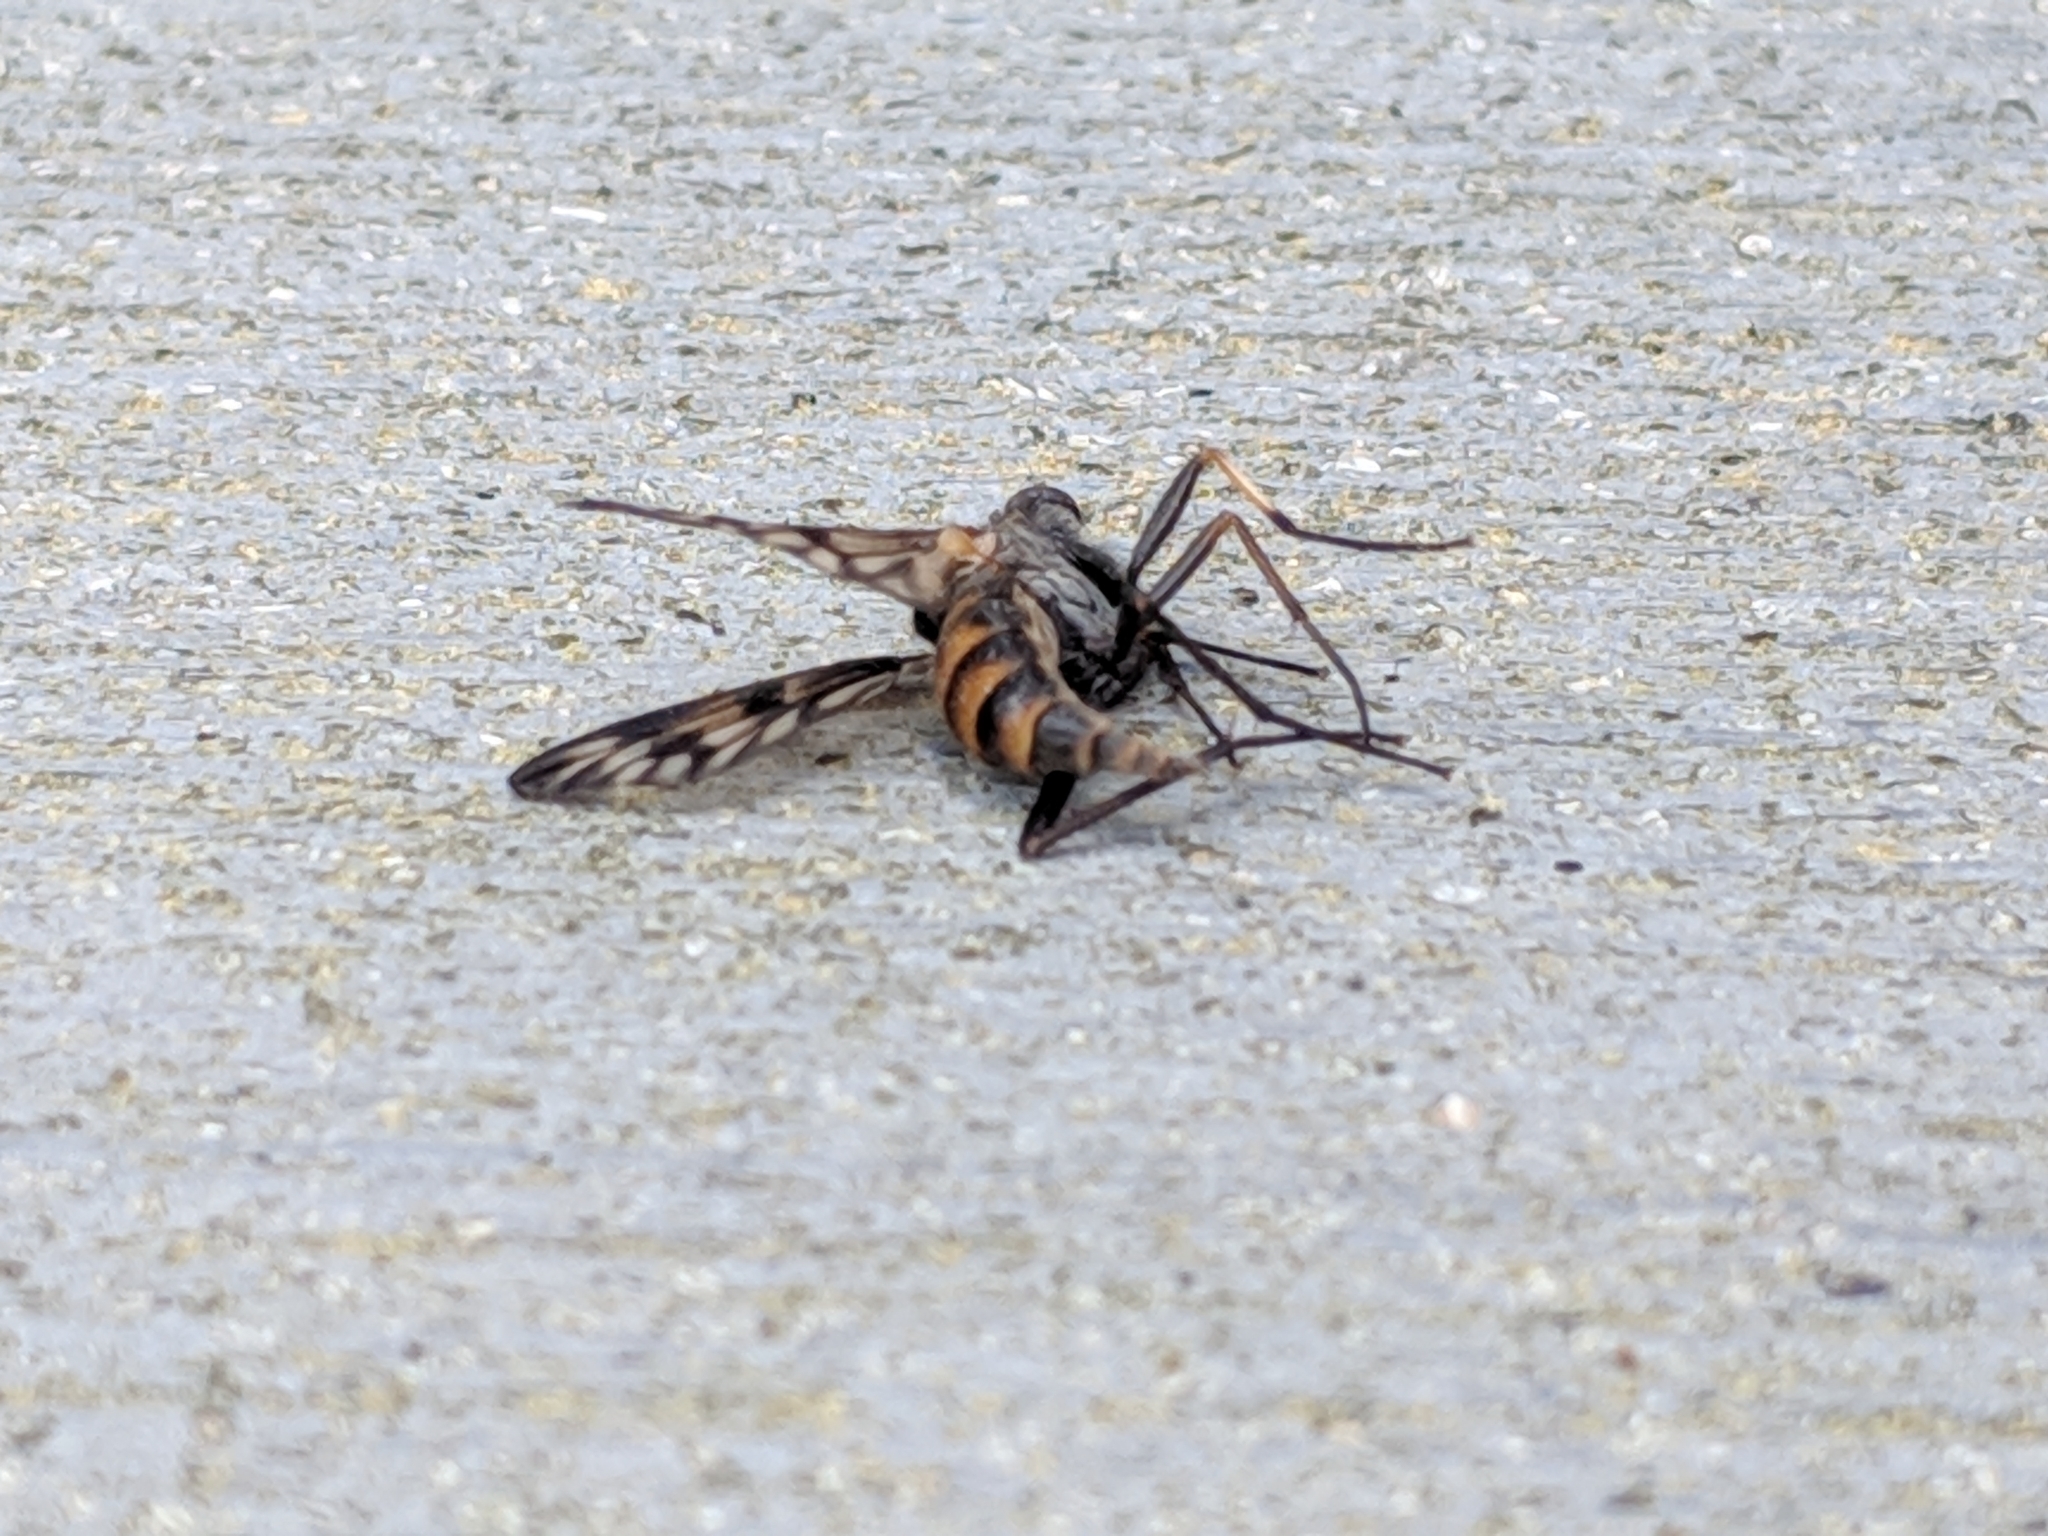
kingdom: Animalia
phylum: Arthropoda
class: Insecta
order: Diptera
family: Rhagionidae
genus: Rhagio
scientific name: Rhagio mystaceus
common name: Common snipe fly
